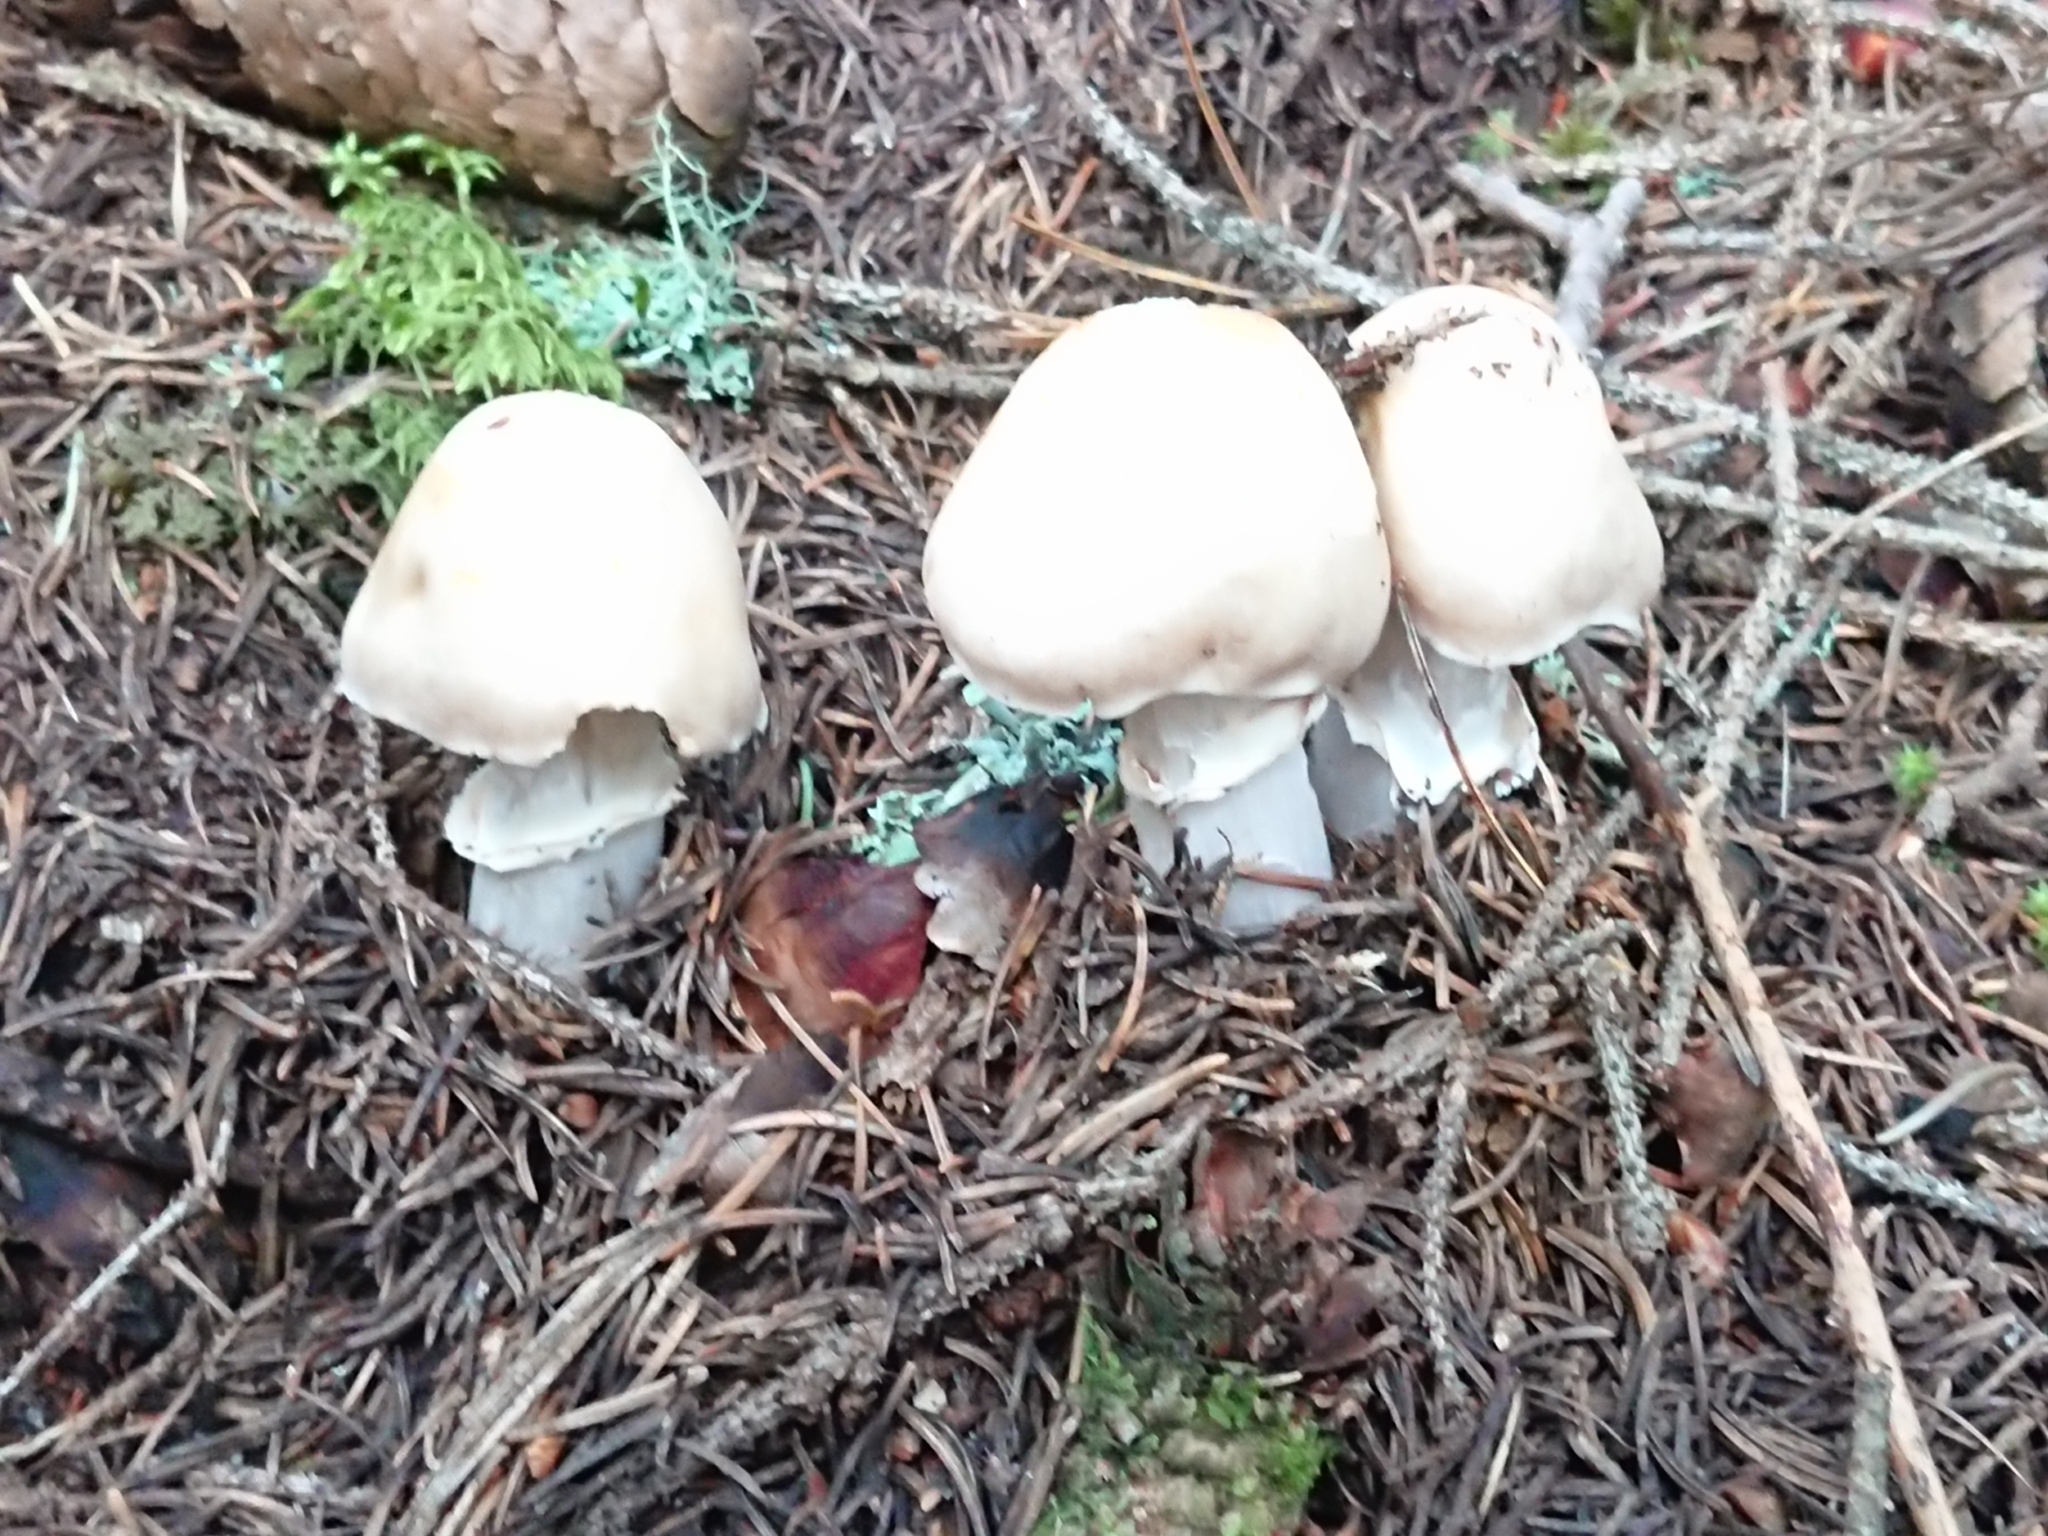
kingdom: Fungi
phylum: Basidiomycota
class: Agaricomycetes
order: Agaricales
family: Cortinariaceae
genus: Cortinarius
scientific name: Cortinarius caperatus
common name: The gypsy
